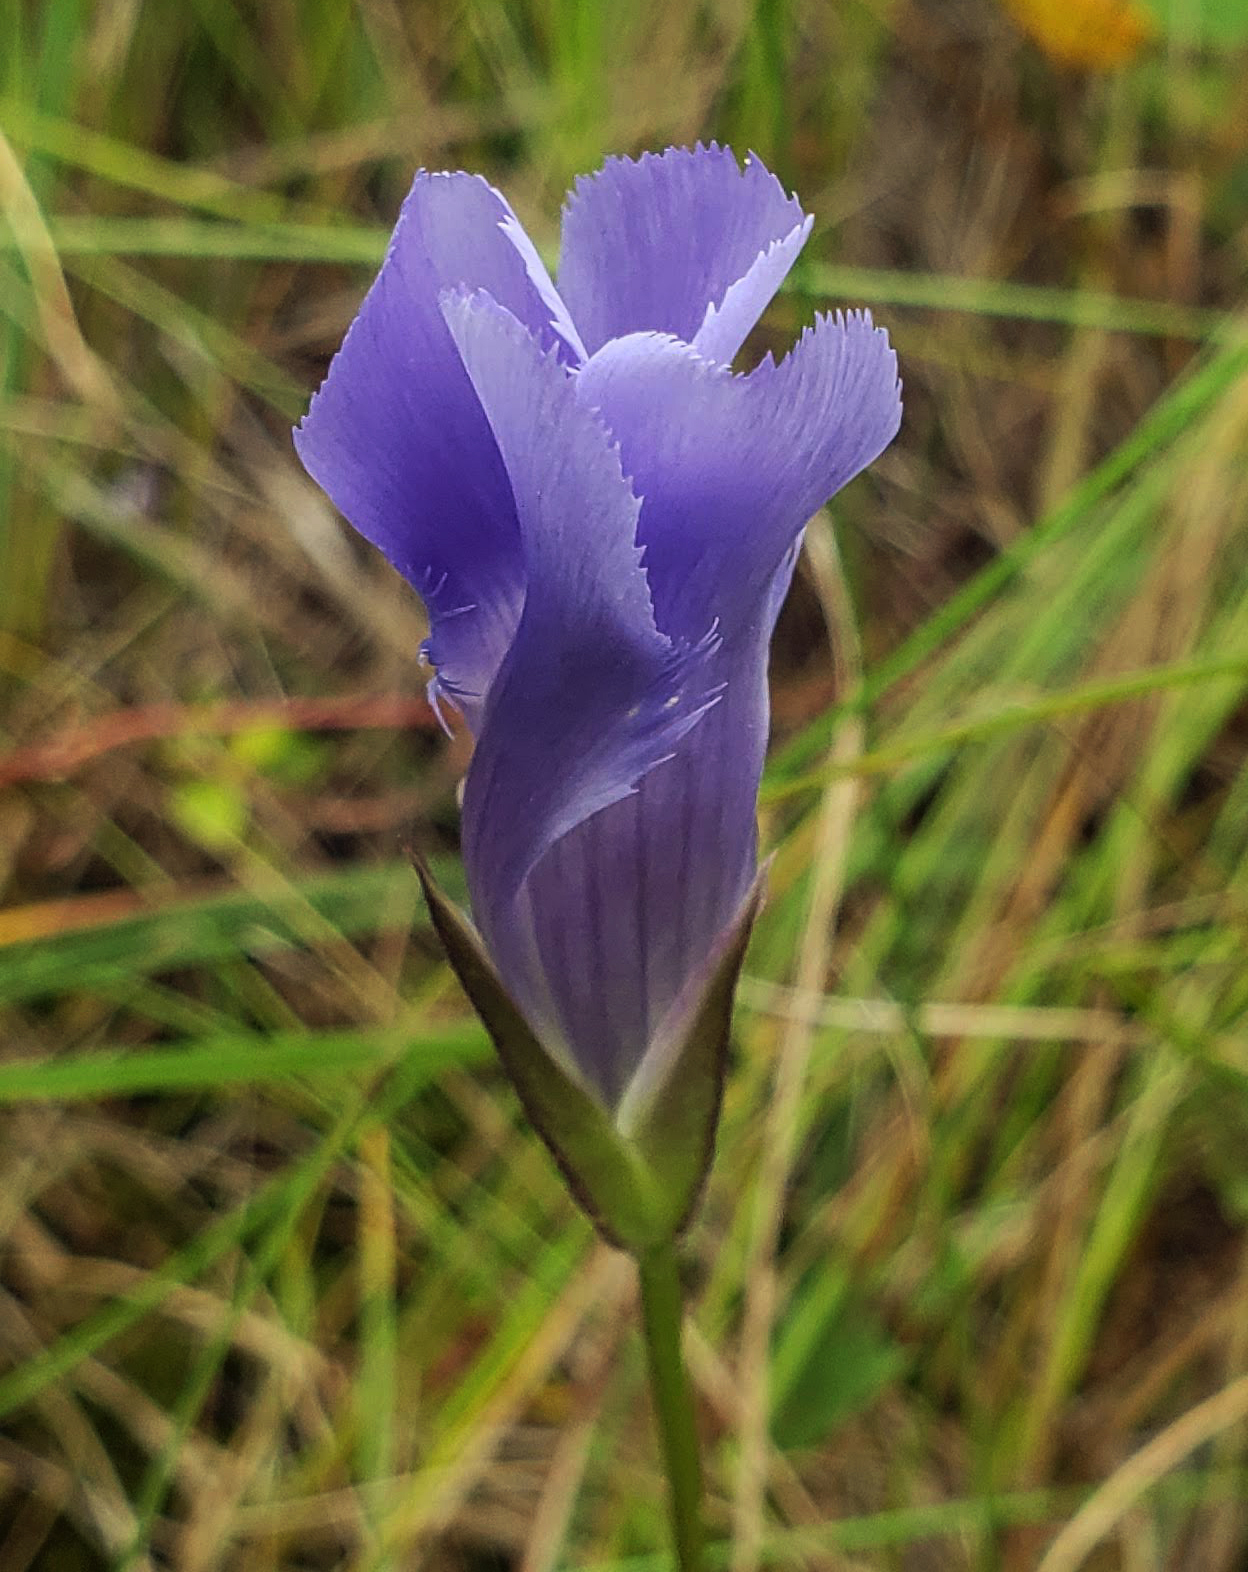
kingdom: Plantae
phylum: Tracheophyta
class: Magnoliopsida
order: Gentianales
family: Gentianaceae
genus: Gentianopsis
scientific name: Gentianopsis virgata
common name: Lesser fringed-gentian
